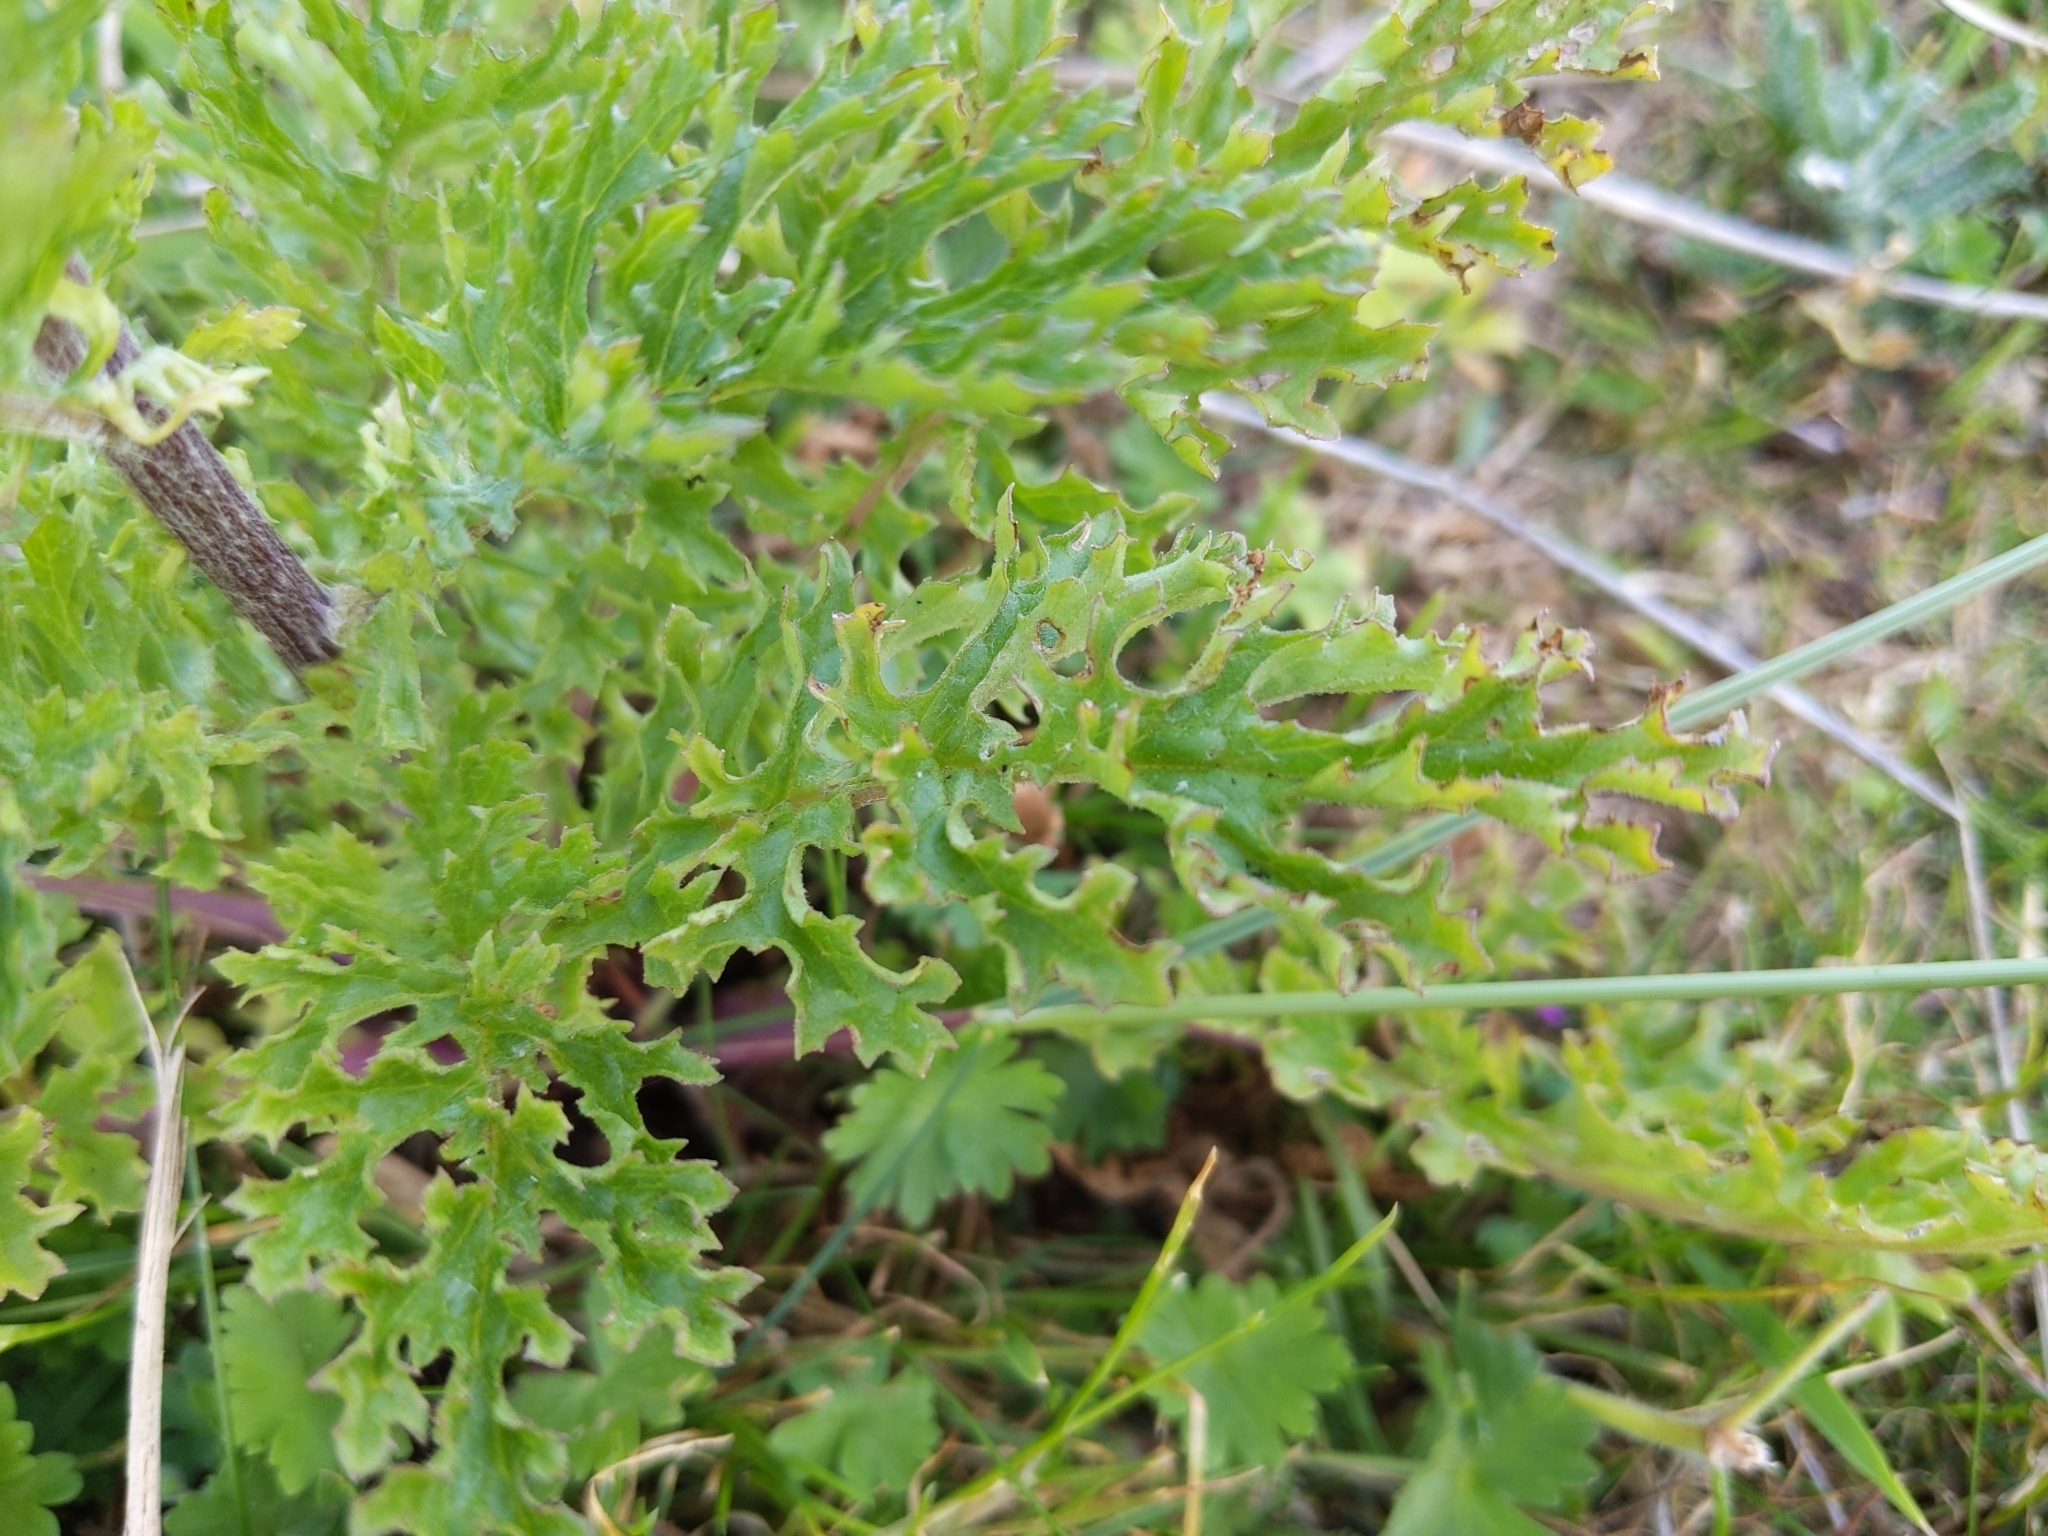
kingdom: Plantae
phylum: Tracheophyta
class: Magnoliopsida
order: Asterales
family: Asteraceae
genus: Jacobaea
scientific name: Jacobaea vulgaris
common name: Stinking willie
